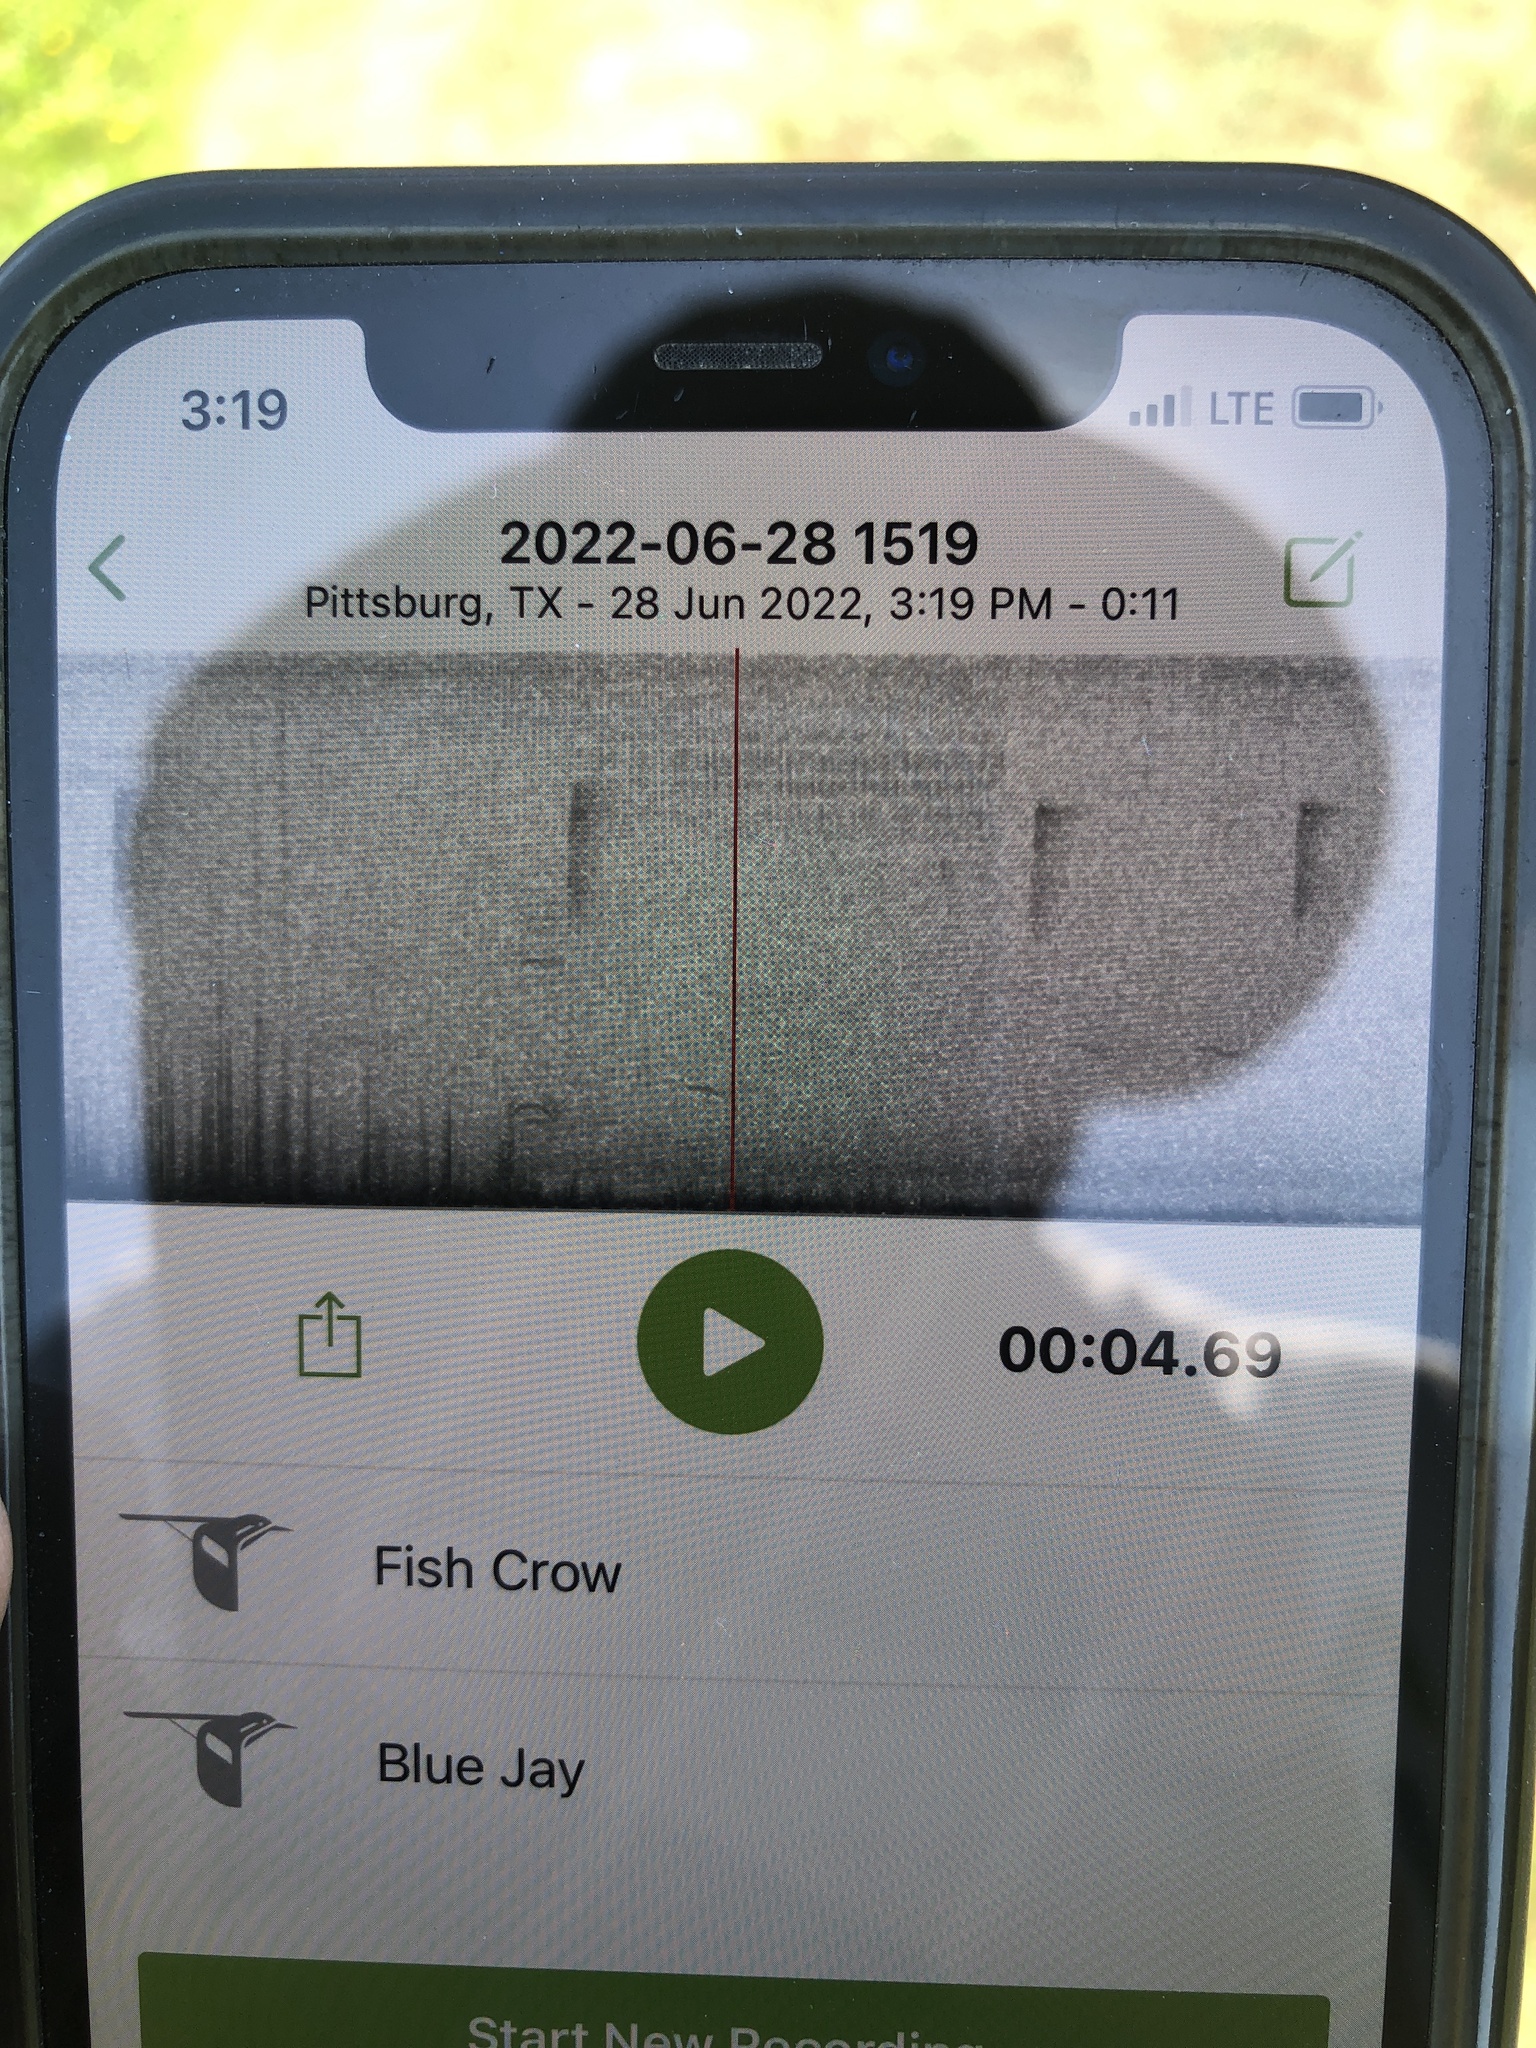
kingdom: Animalia
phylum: Chordata
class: Aves
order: Passeriformes
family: Corvidae
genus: Corvus
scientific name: Corvus ossifragus
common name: Fish crow
